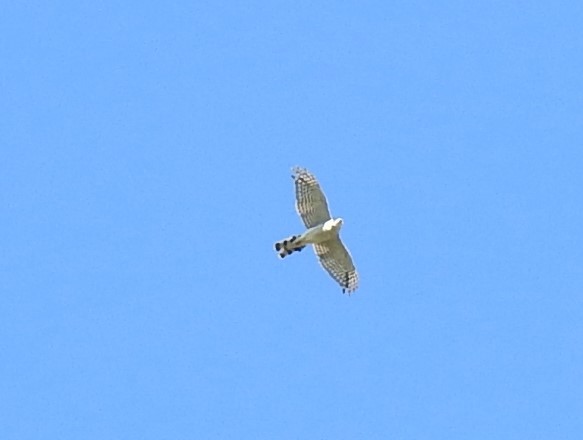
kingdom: Animalia
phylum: Chordata
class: Aves
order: Accipitriformes
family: Accipitridae
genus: Accipiter
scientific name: Accipiter gentilis
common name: Northern goshawk
